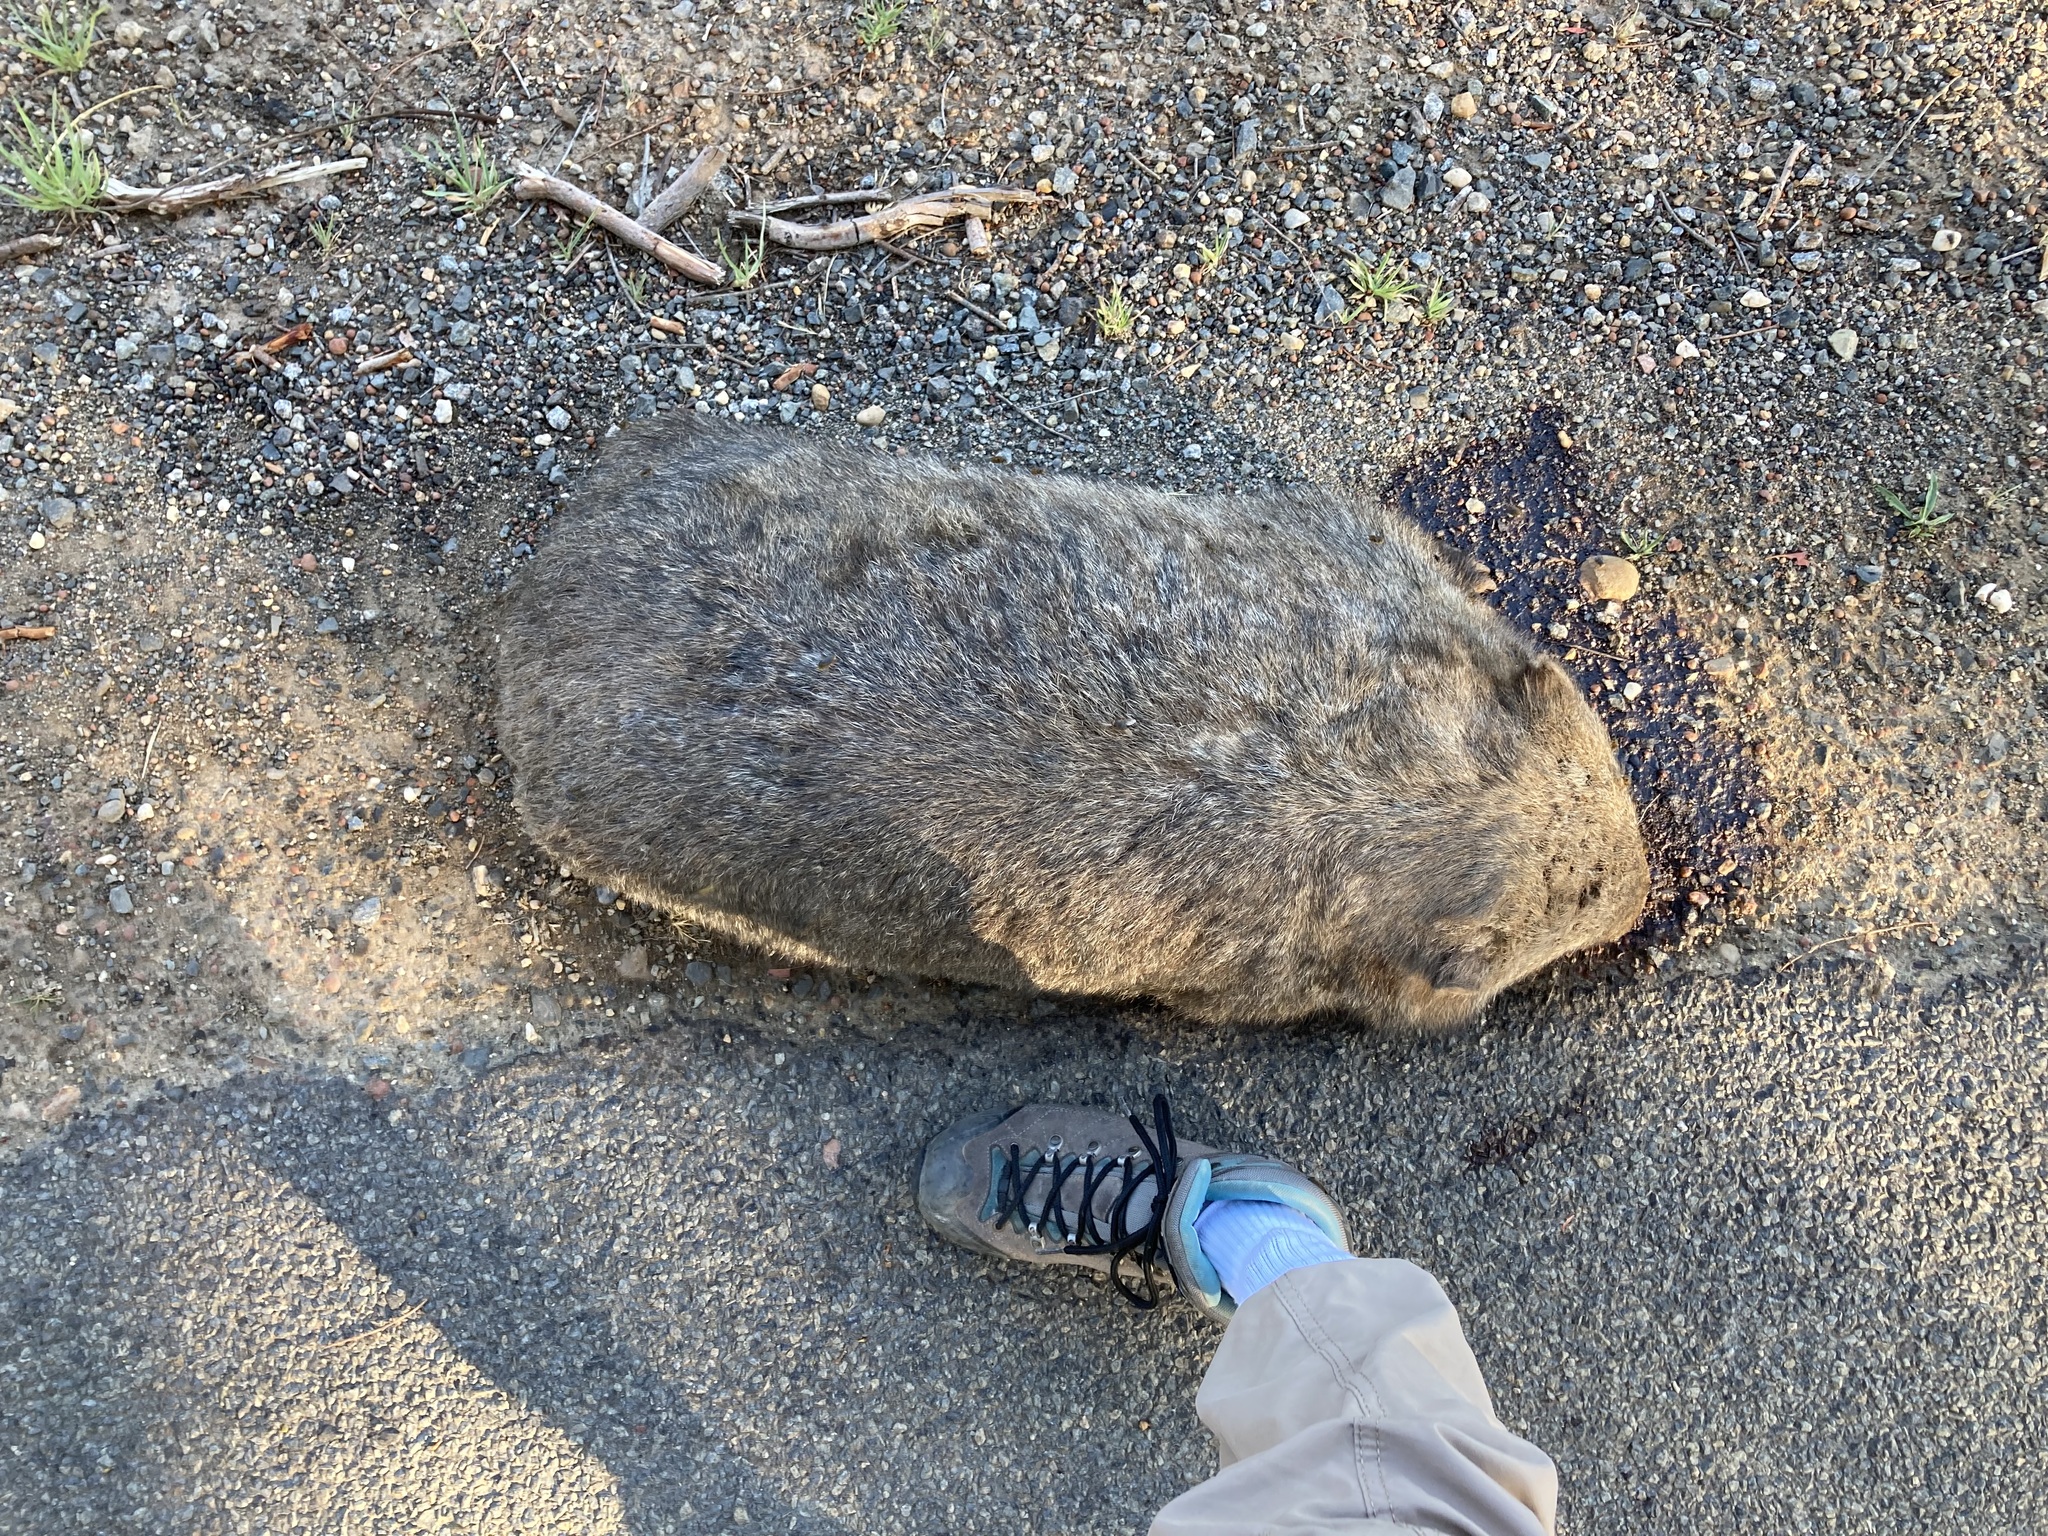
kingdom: Animalia
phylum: Chordata
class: Mammalia
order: Diprotodontia
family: Vombatidae
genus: Vombatus
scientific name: Vombatus ursinus
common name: Common wombat
